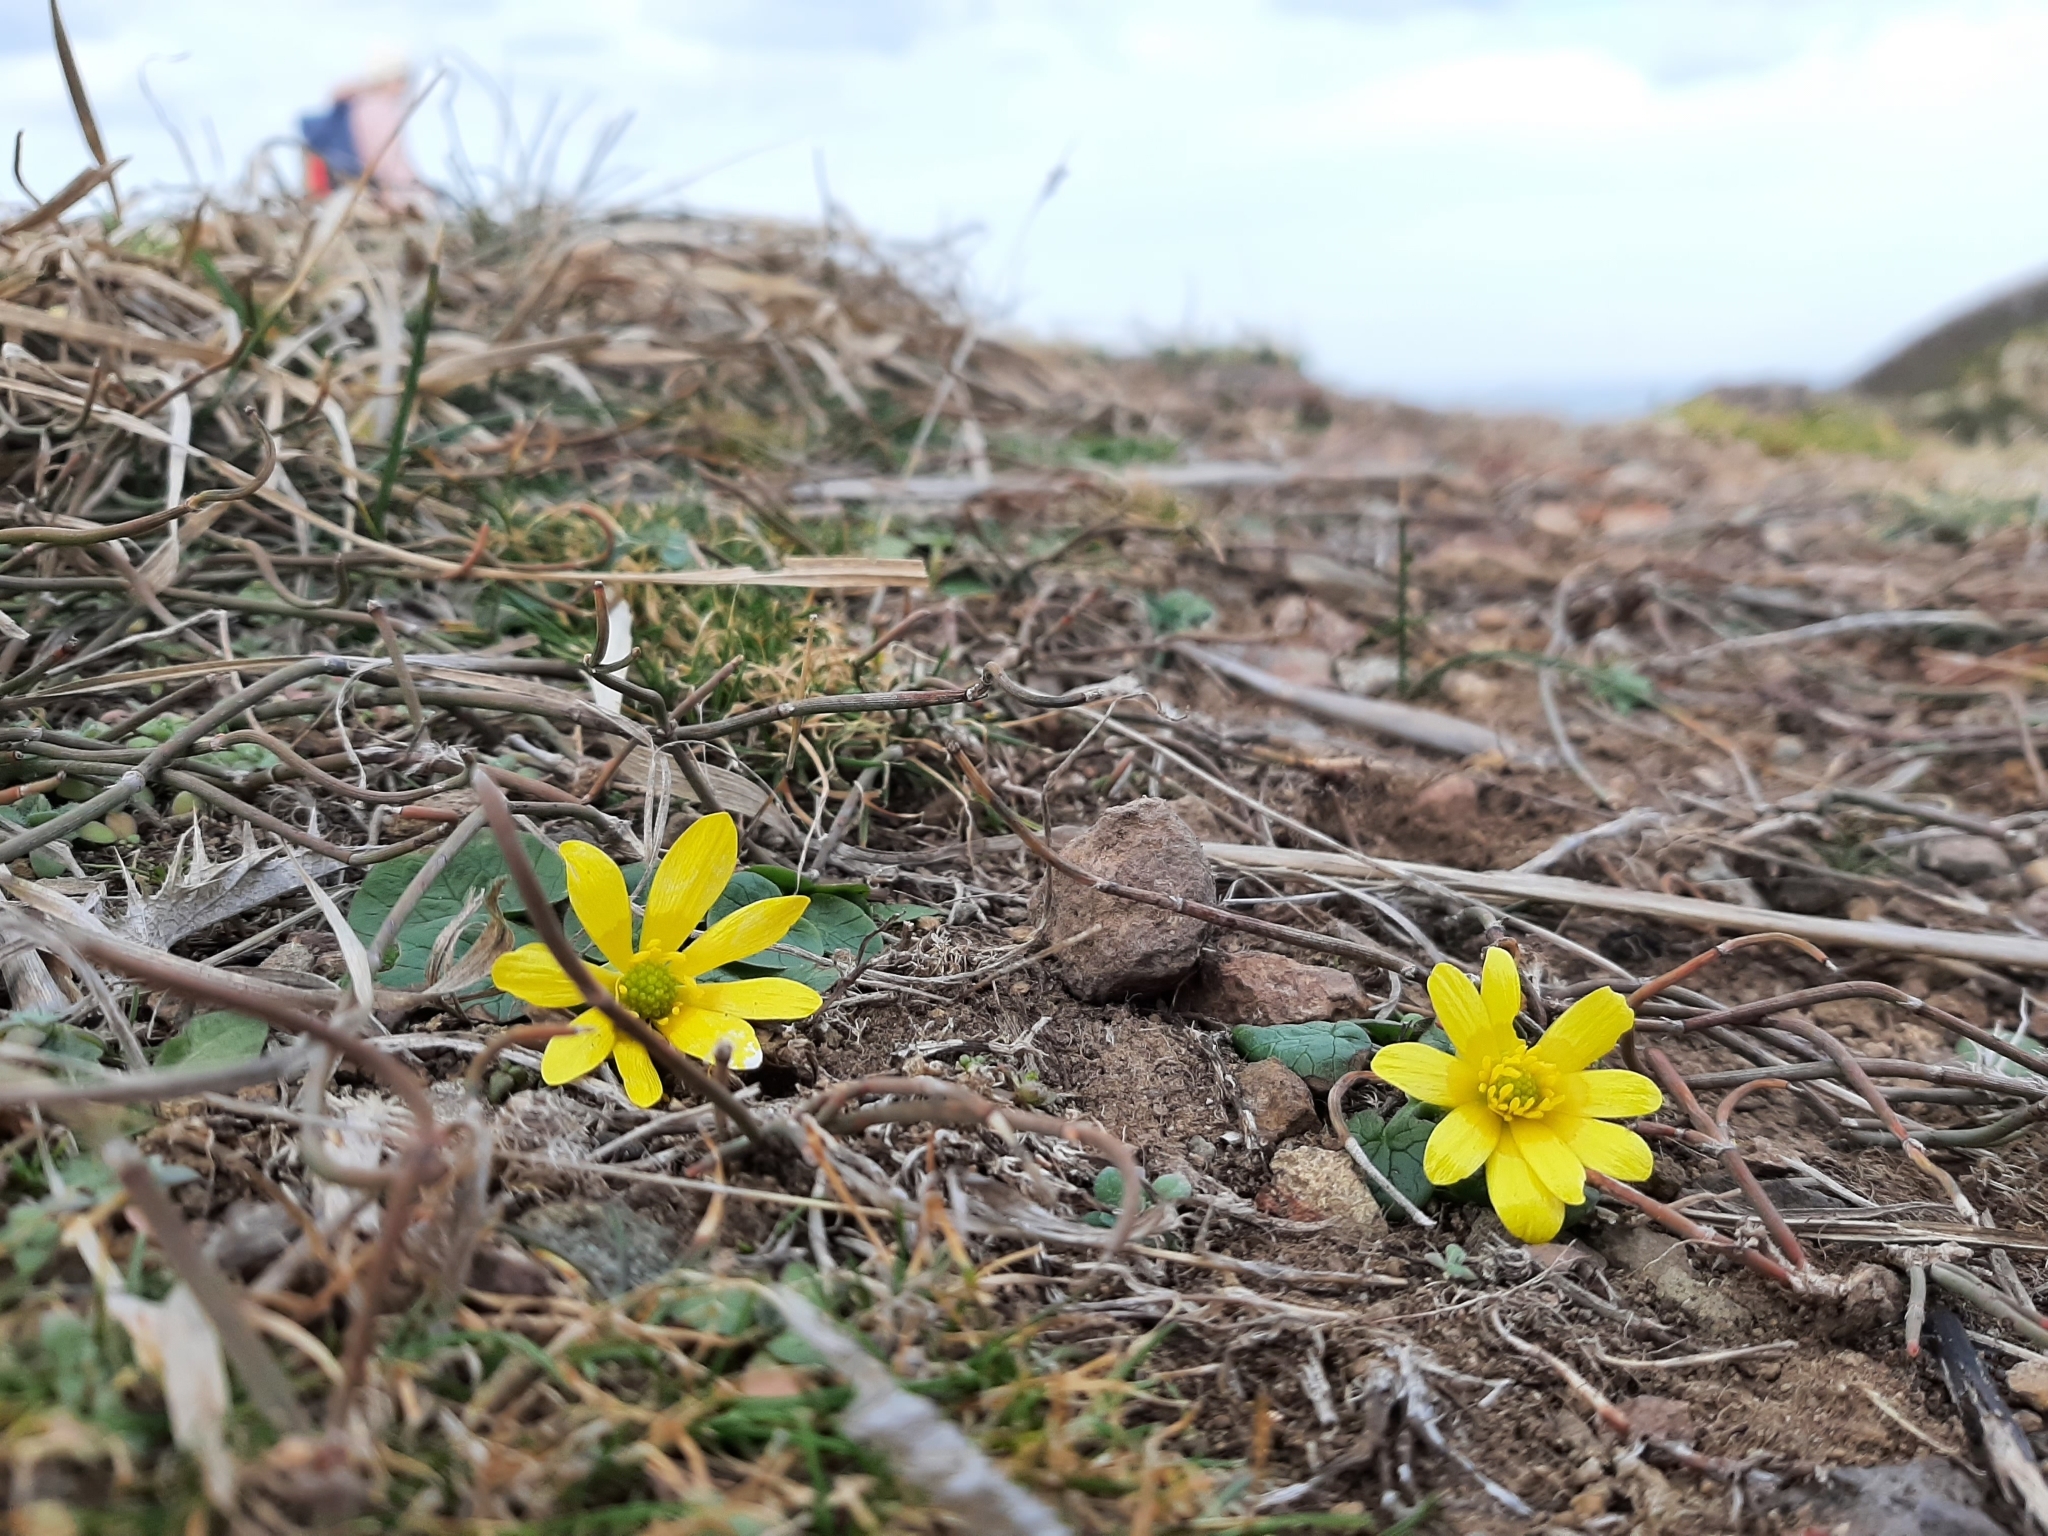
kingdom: Plantae
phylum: Tracheophyta
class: Magnoliopsida
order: Ranunculales
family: Ranunculaceae
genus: Ficaria
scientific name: Ficaria verna
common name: Lesser celandine
